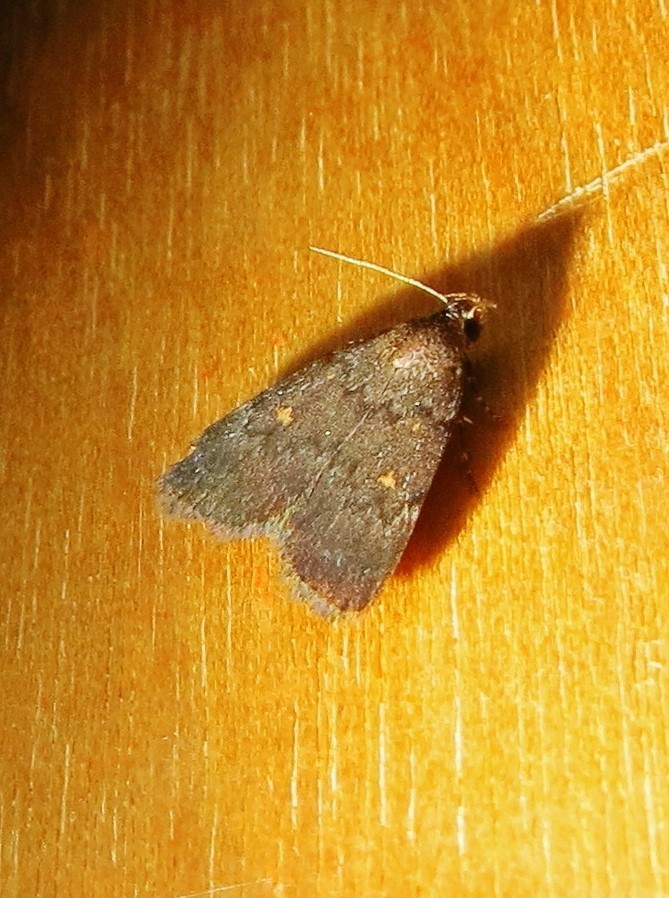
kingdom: Animalia
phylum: Arthropoda
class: Insecta
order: Lepidoptera
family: Erebidae
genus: Idia
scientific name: Idia diminuendis
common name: Orange-spotted idia moth
